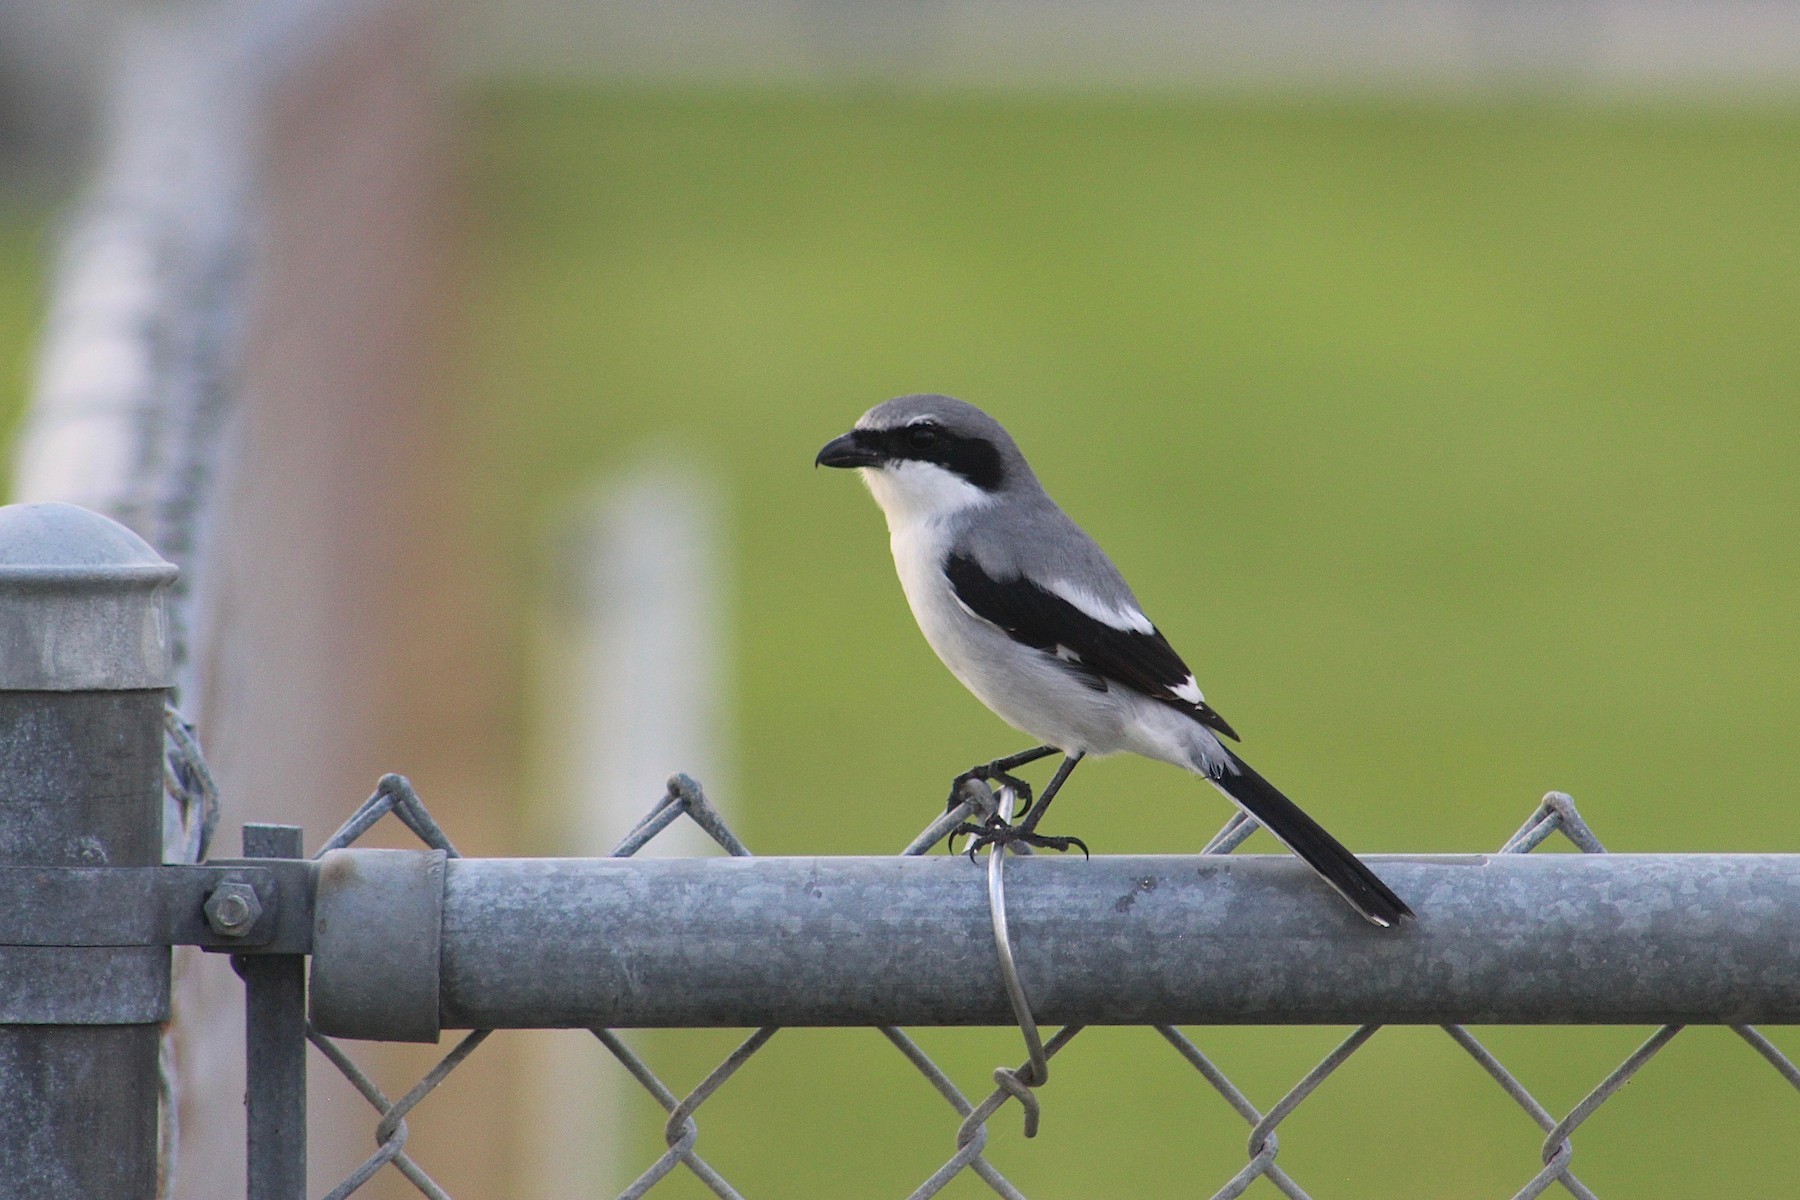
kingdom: Animalia
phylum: Chordata
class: Aves
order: Passeriformes
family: Laniidae
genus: Lanius
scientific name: Lanius ludovicianus
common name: Loggerhead shrike
